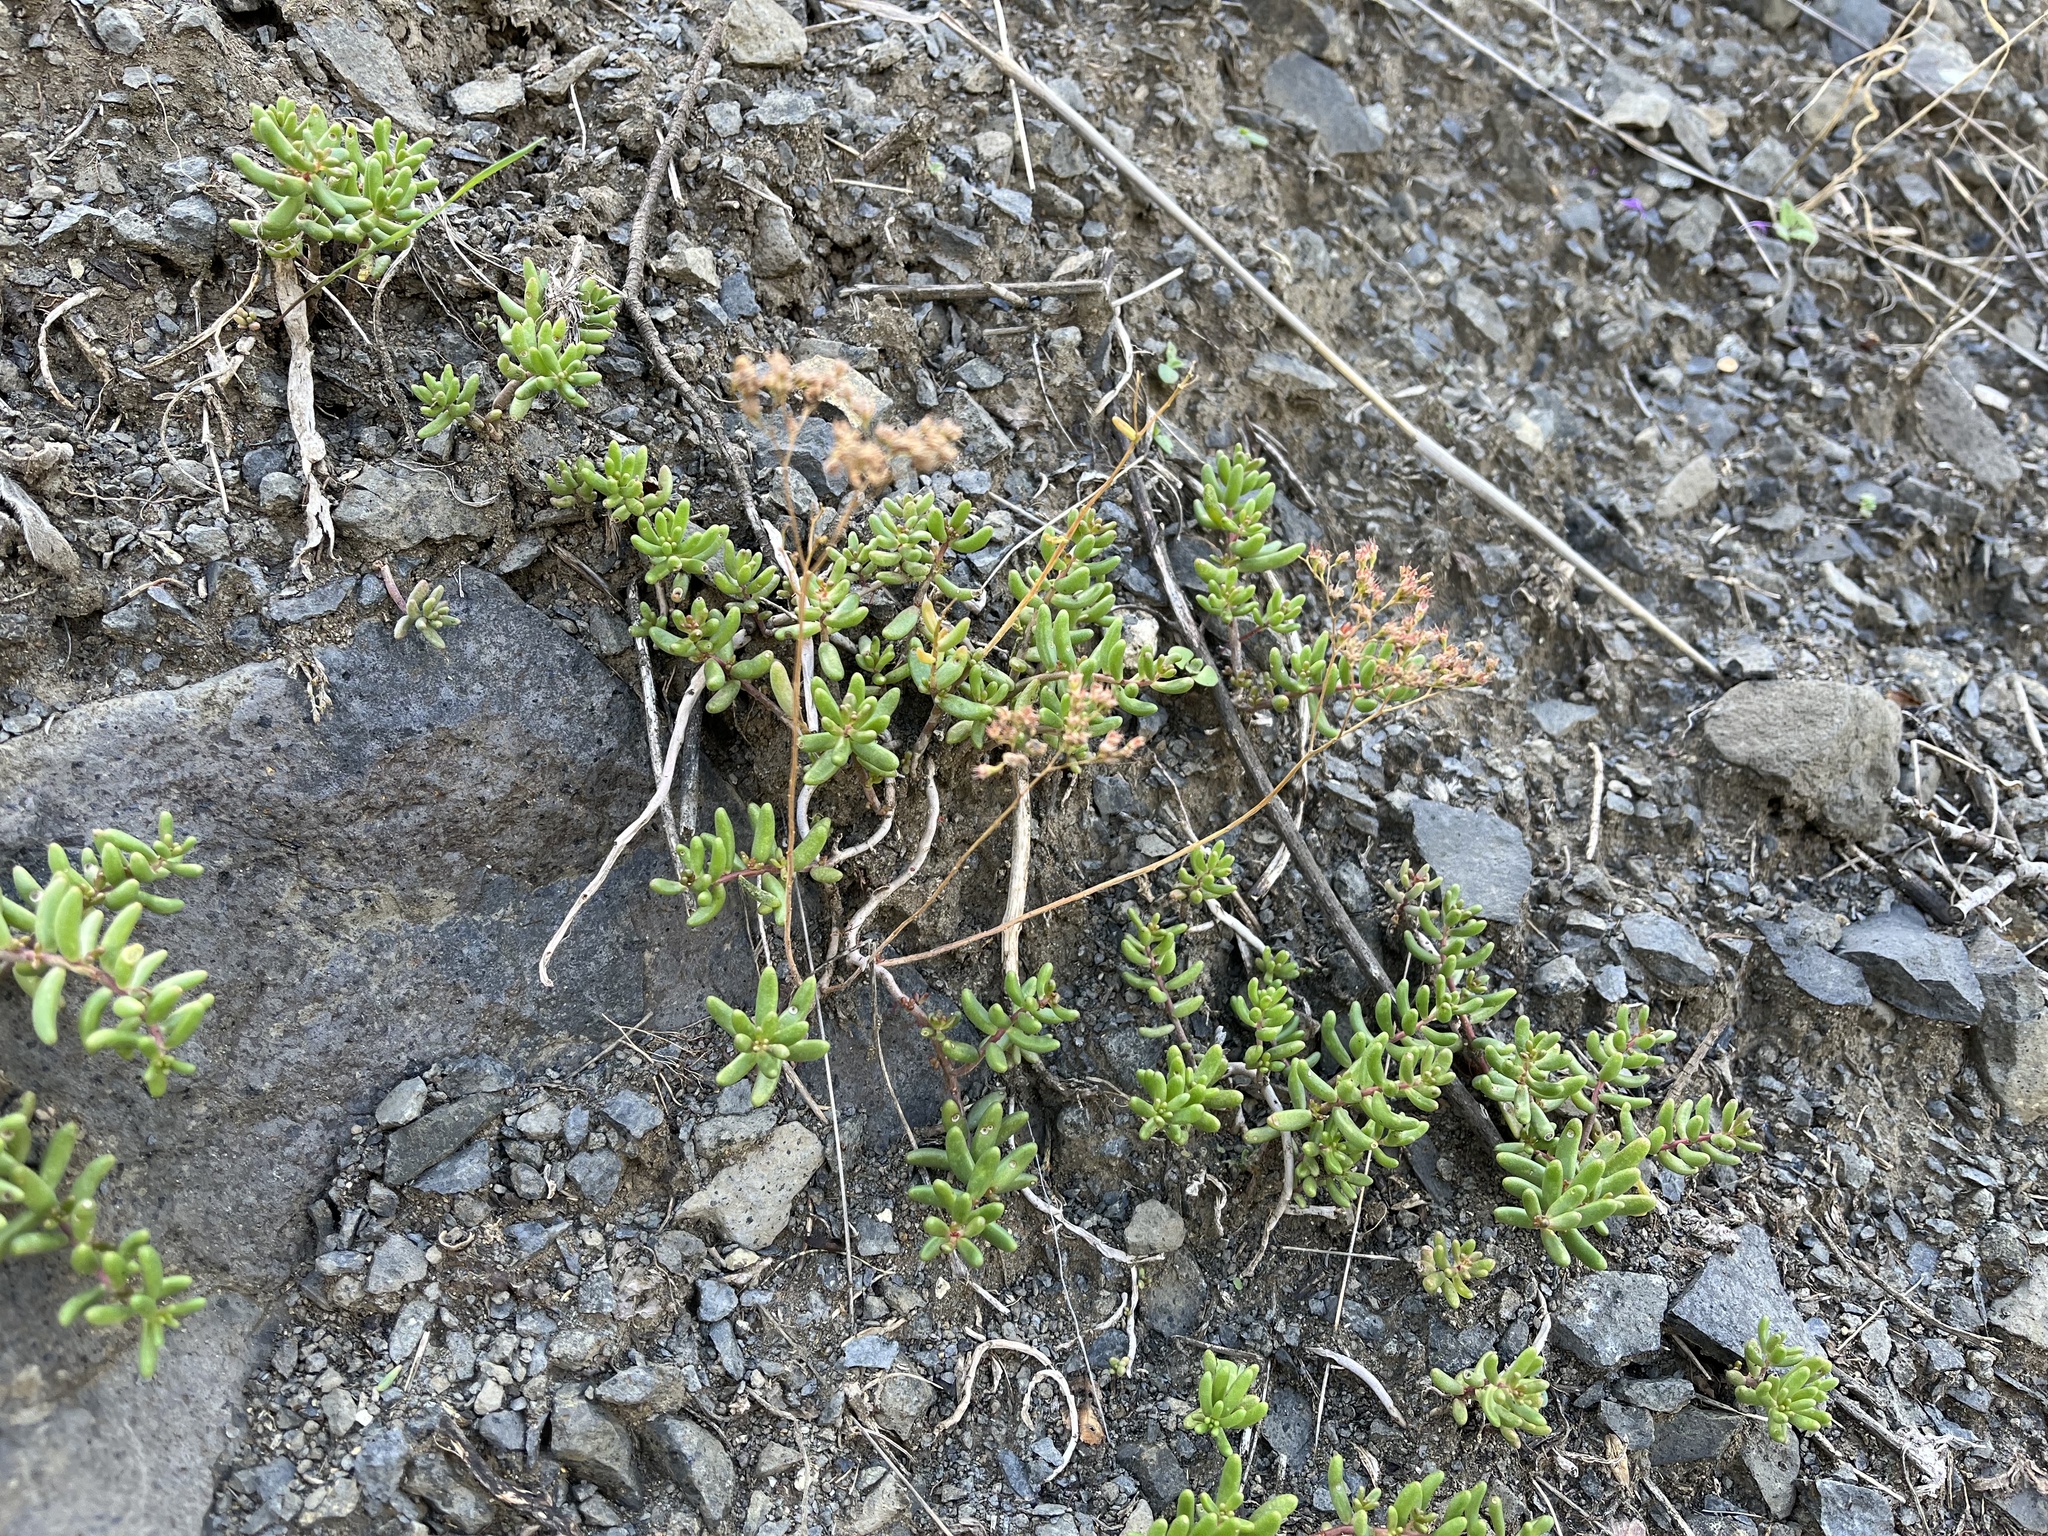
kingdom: Plantae
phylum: Tracheophyta
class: Magnoliopsida
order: Saxifragales
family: Crassulaceae
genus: Sedum
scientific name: Sedum album
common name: White stonecrop
